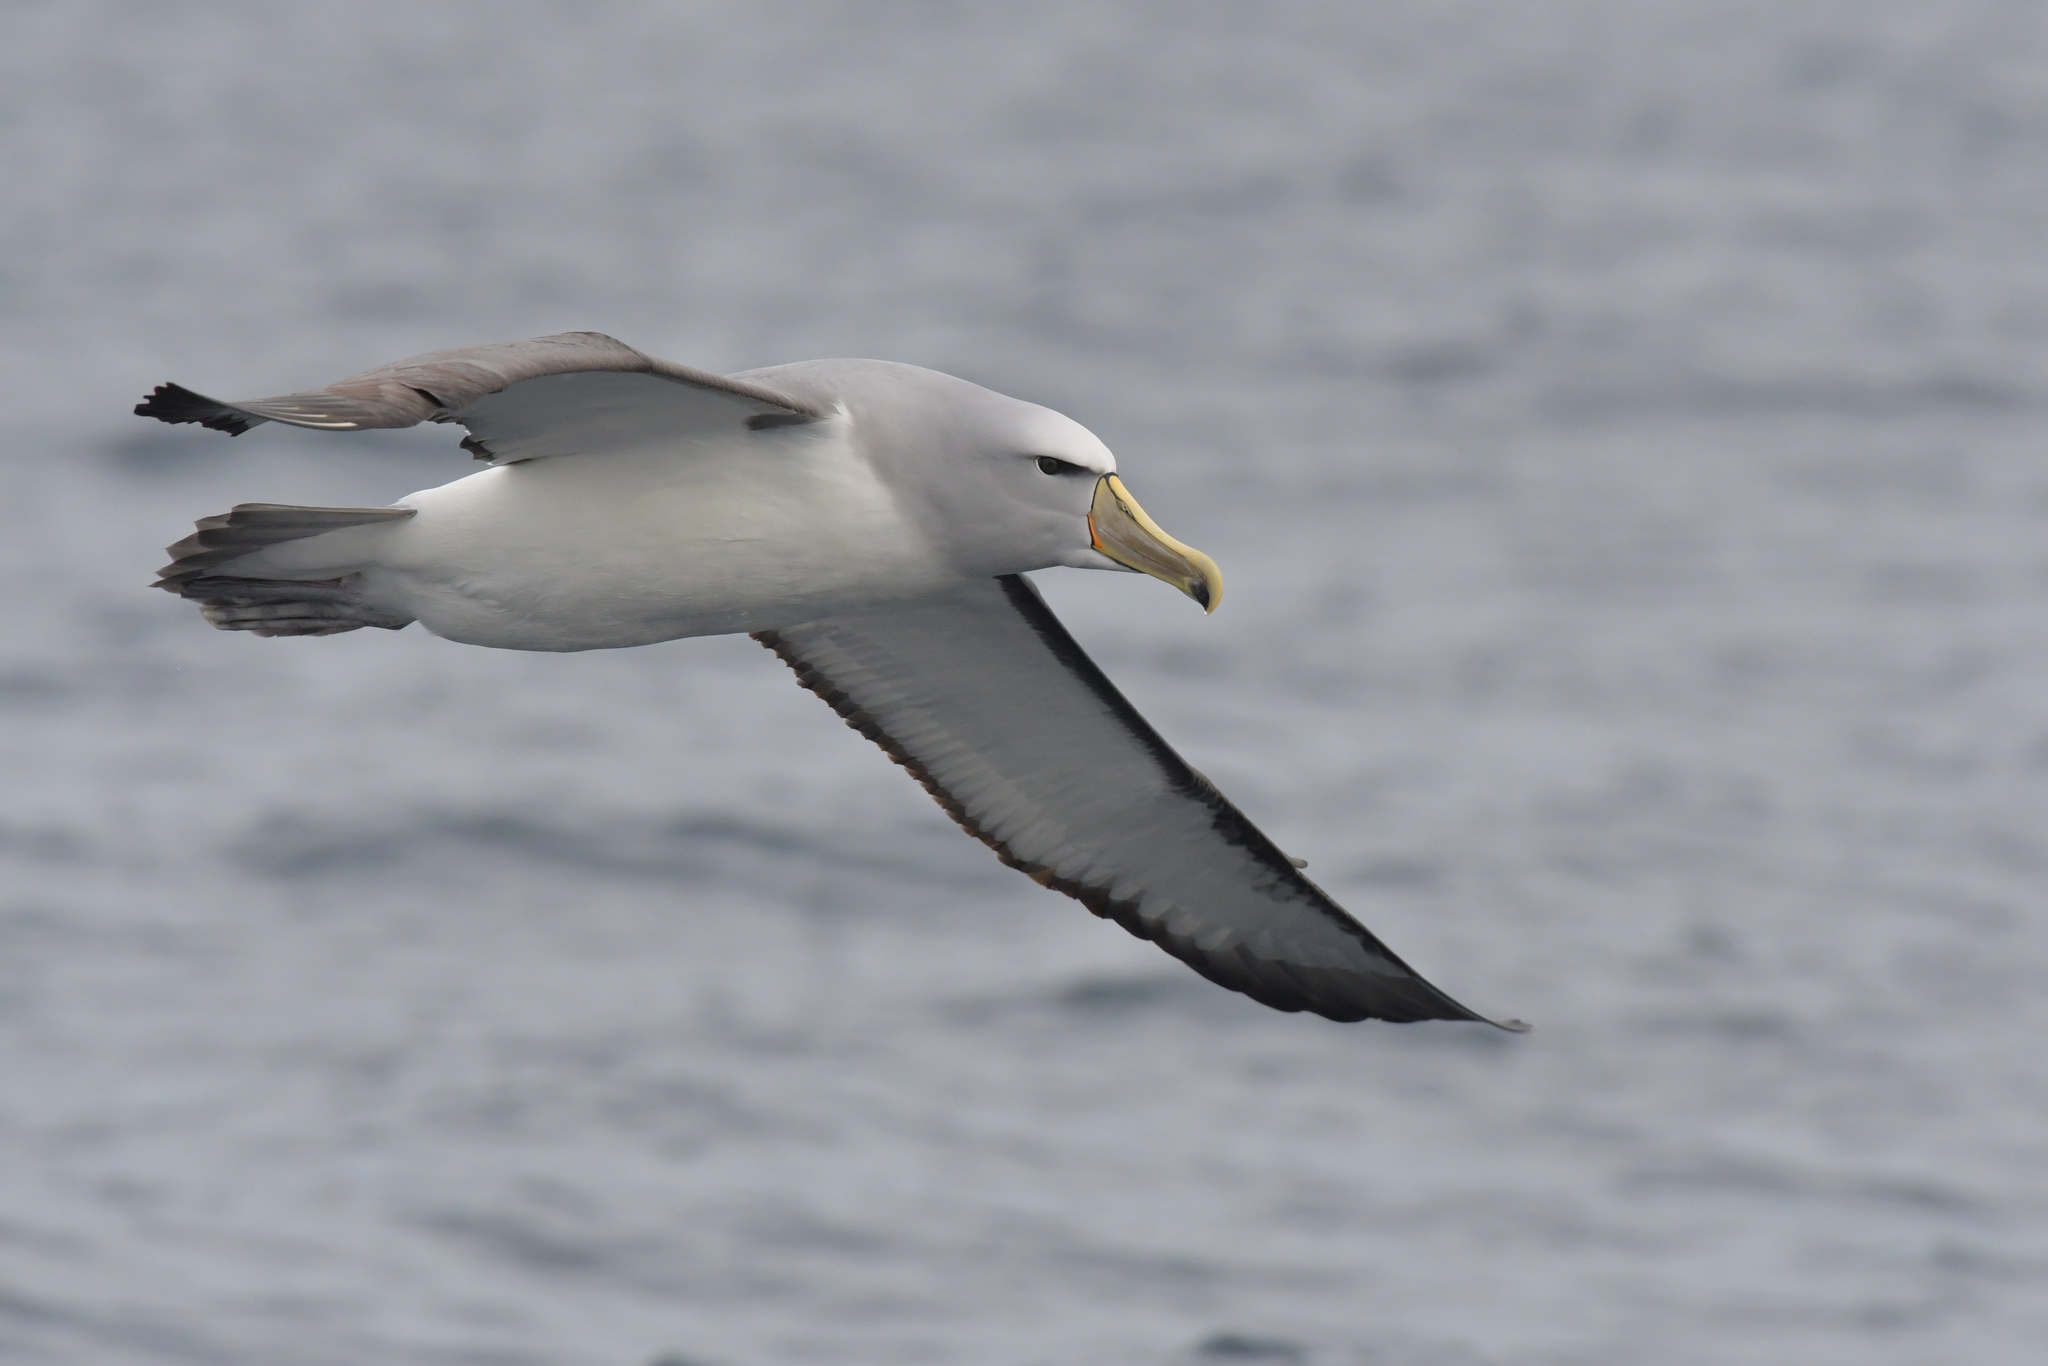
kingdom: Animalia
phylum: Chordata
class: Aves
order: Procellariiformes
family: Diomedeidae
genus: Thalassarche
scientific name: Thalassarche salvini
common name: Salvin's albatross
